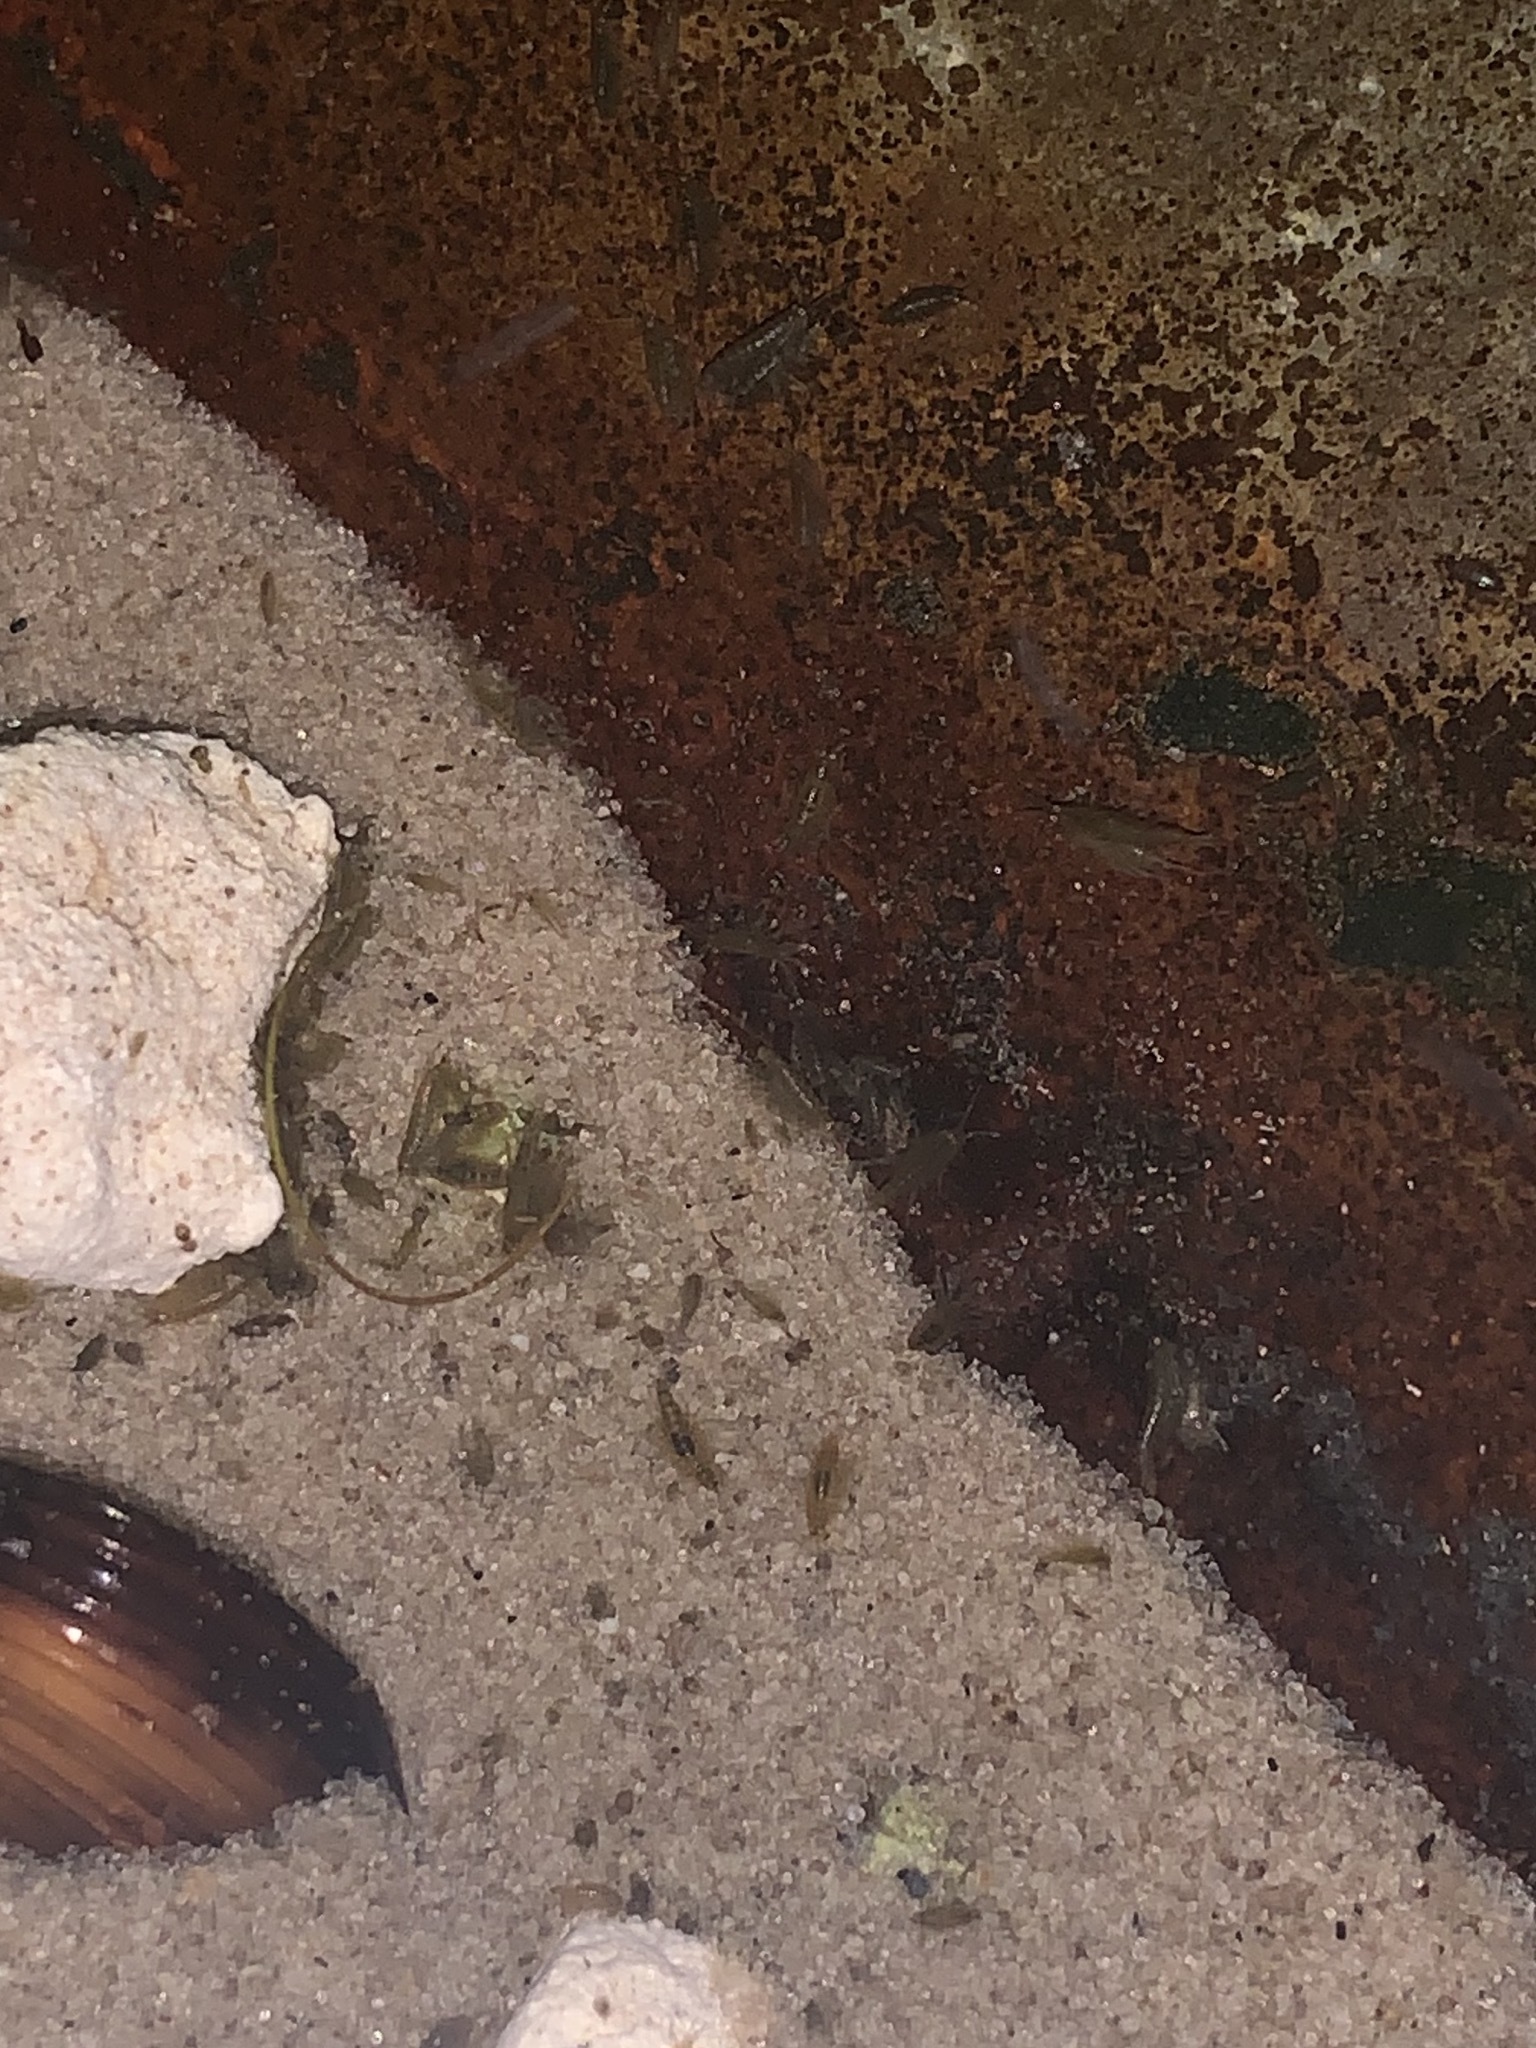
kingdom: Animalia
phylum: Arthropoda
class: Malacostraca
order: Amphipoda
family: Hyalellidae
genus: Hyalella
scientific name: Hyalella
